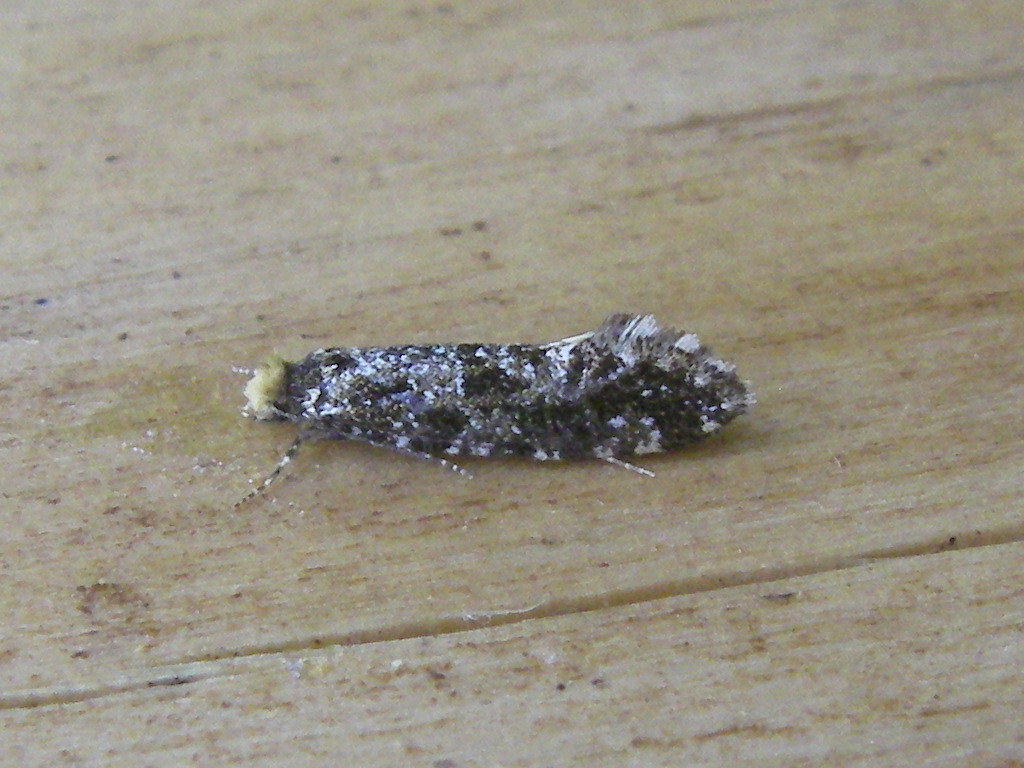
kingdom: Animalia
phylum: Arthropoda
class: Insecta
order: Lepidoptera
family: Tineidae
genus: Triaxomera
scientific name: Triaxomera parasitella
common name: Large brindled clothes
